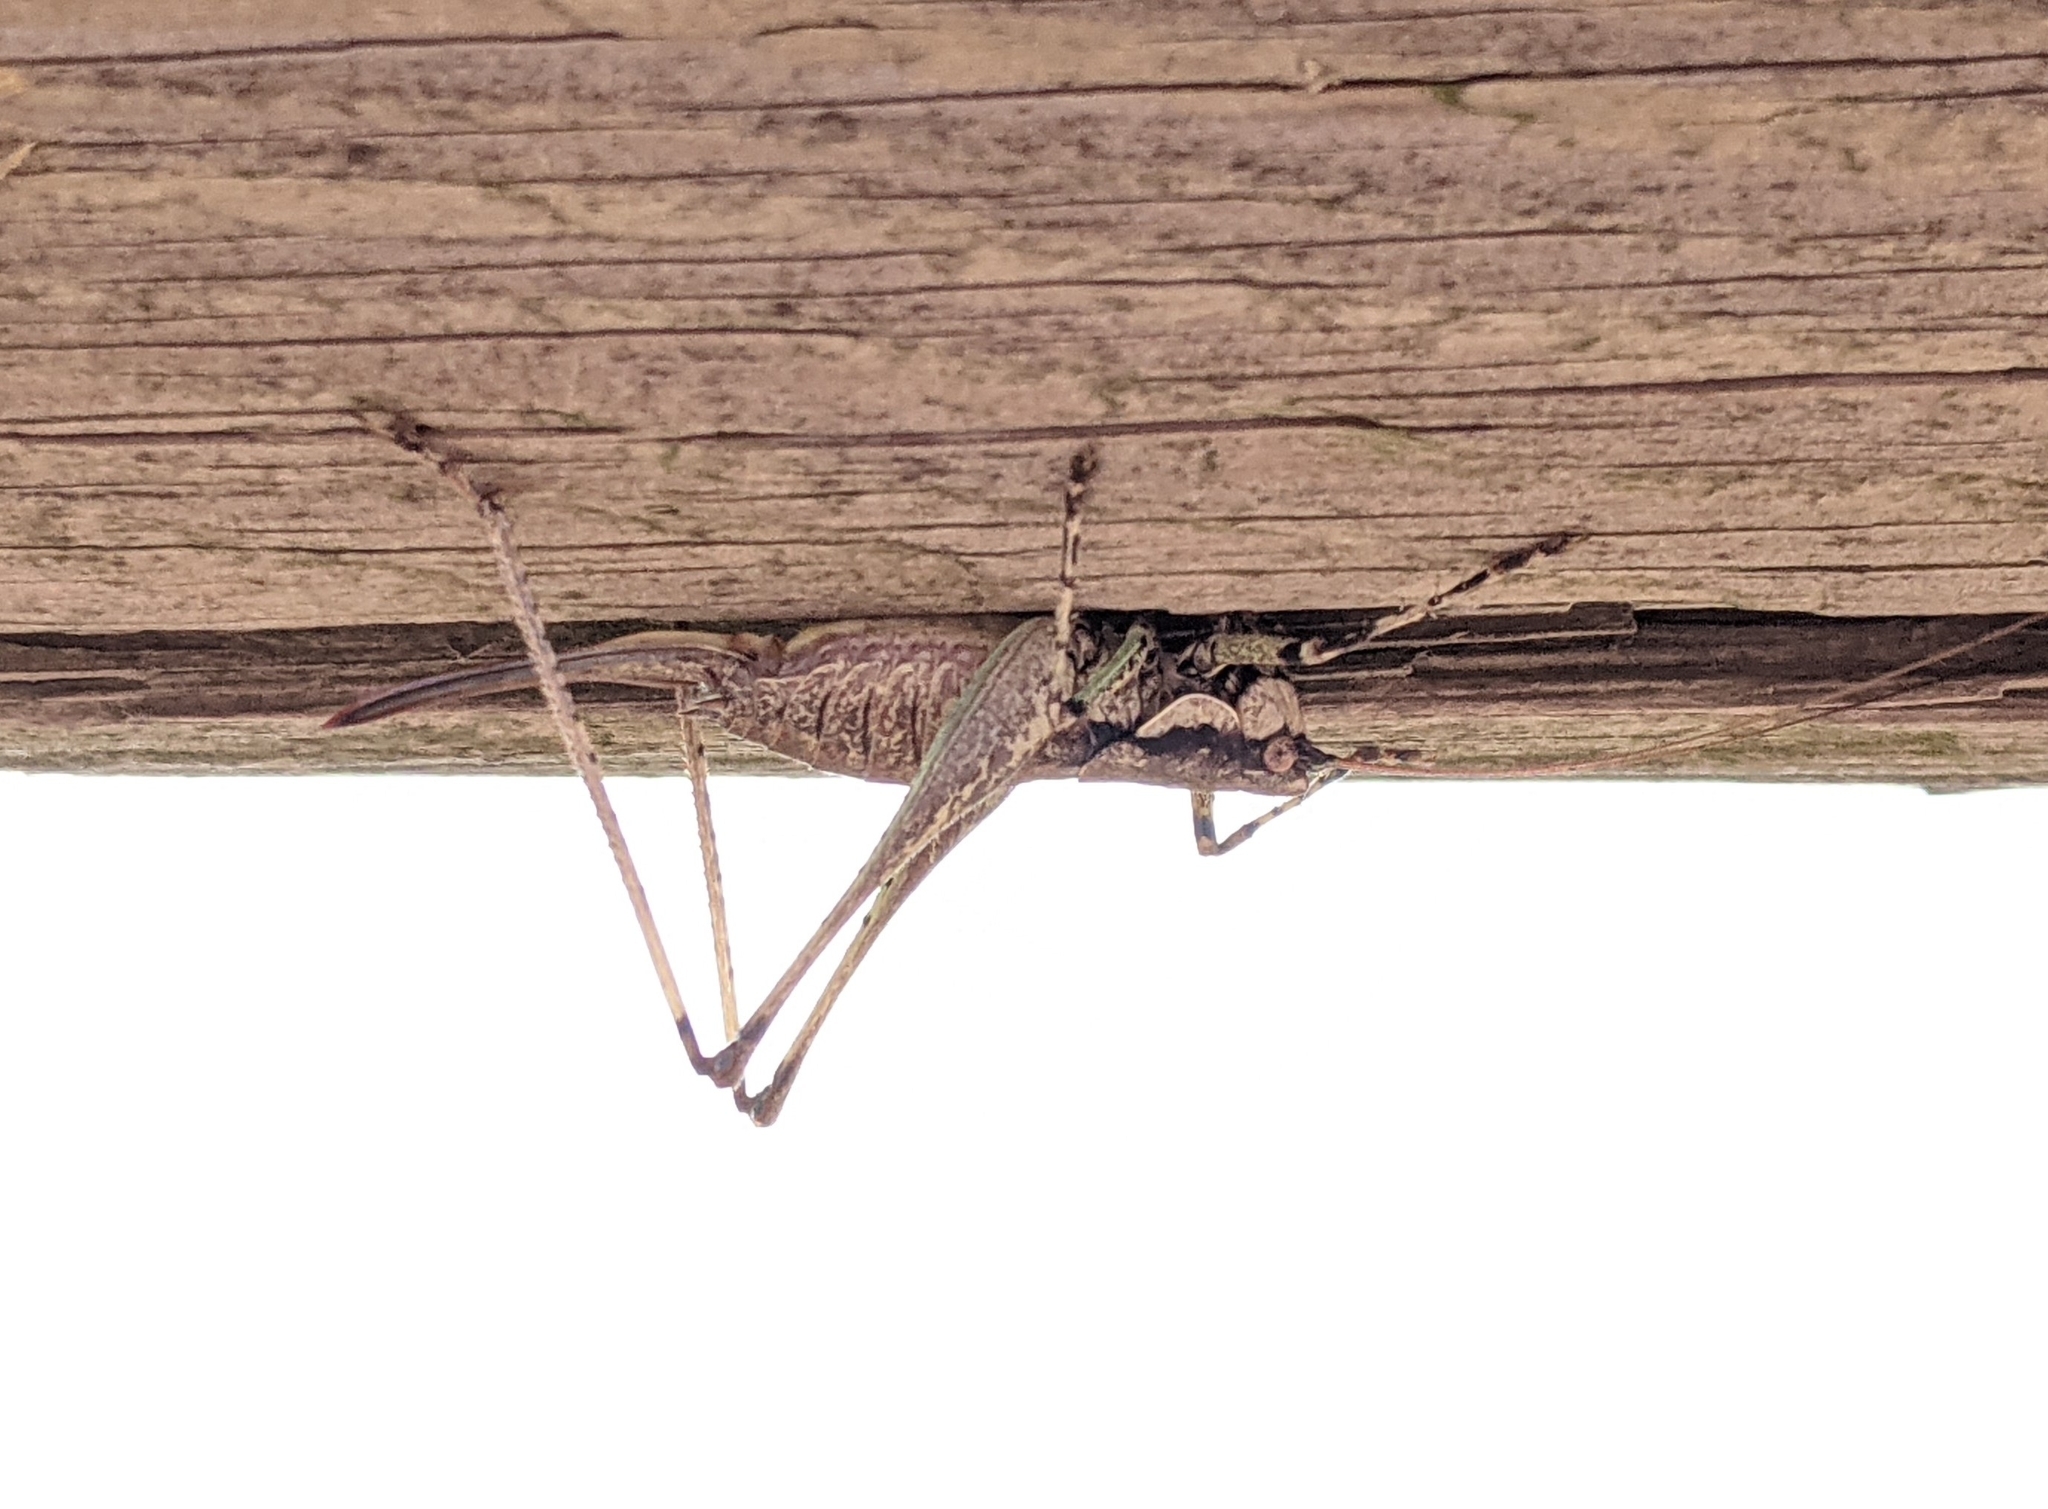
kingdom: Animalia
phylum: Arthropoda
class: Insecta
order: Orthoptera
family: Tettigoniidae
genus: Rhacocleis
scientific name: Rhacocleis annulata
